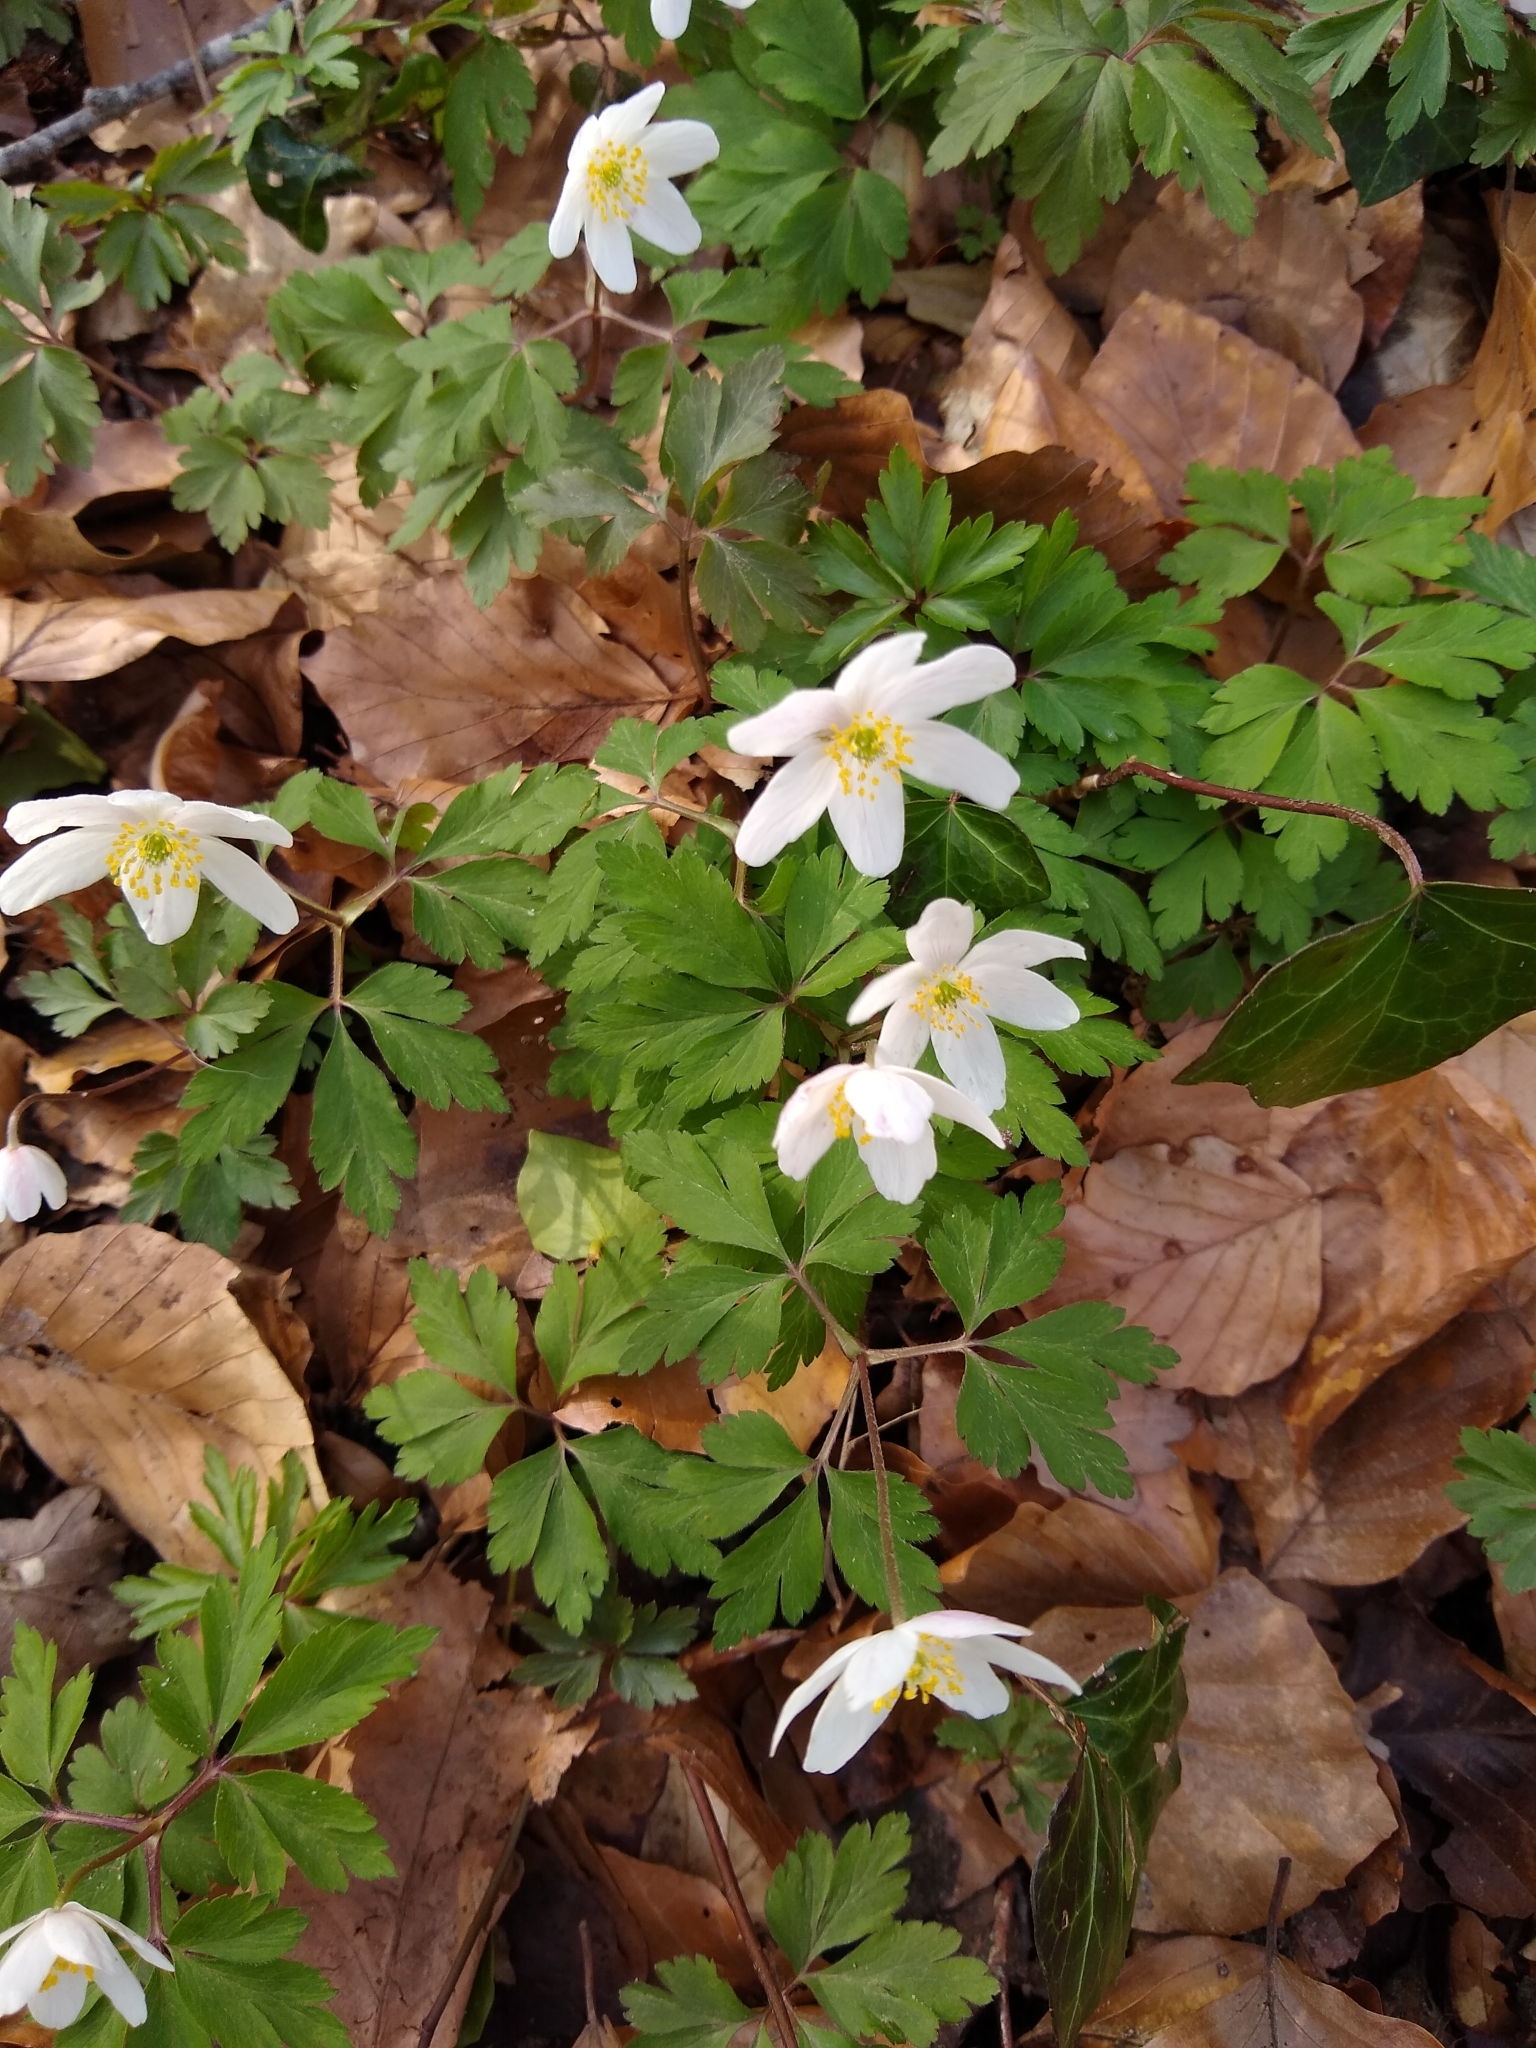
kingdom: Plantae
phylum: Tracheophyta
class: Magnoliopsida
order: Ranunculales
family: Ranunculaceae
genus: Anemone
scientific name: Anemone nemorosa
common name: Wood anemone
